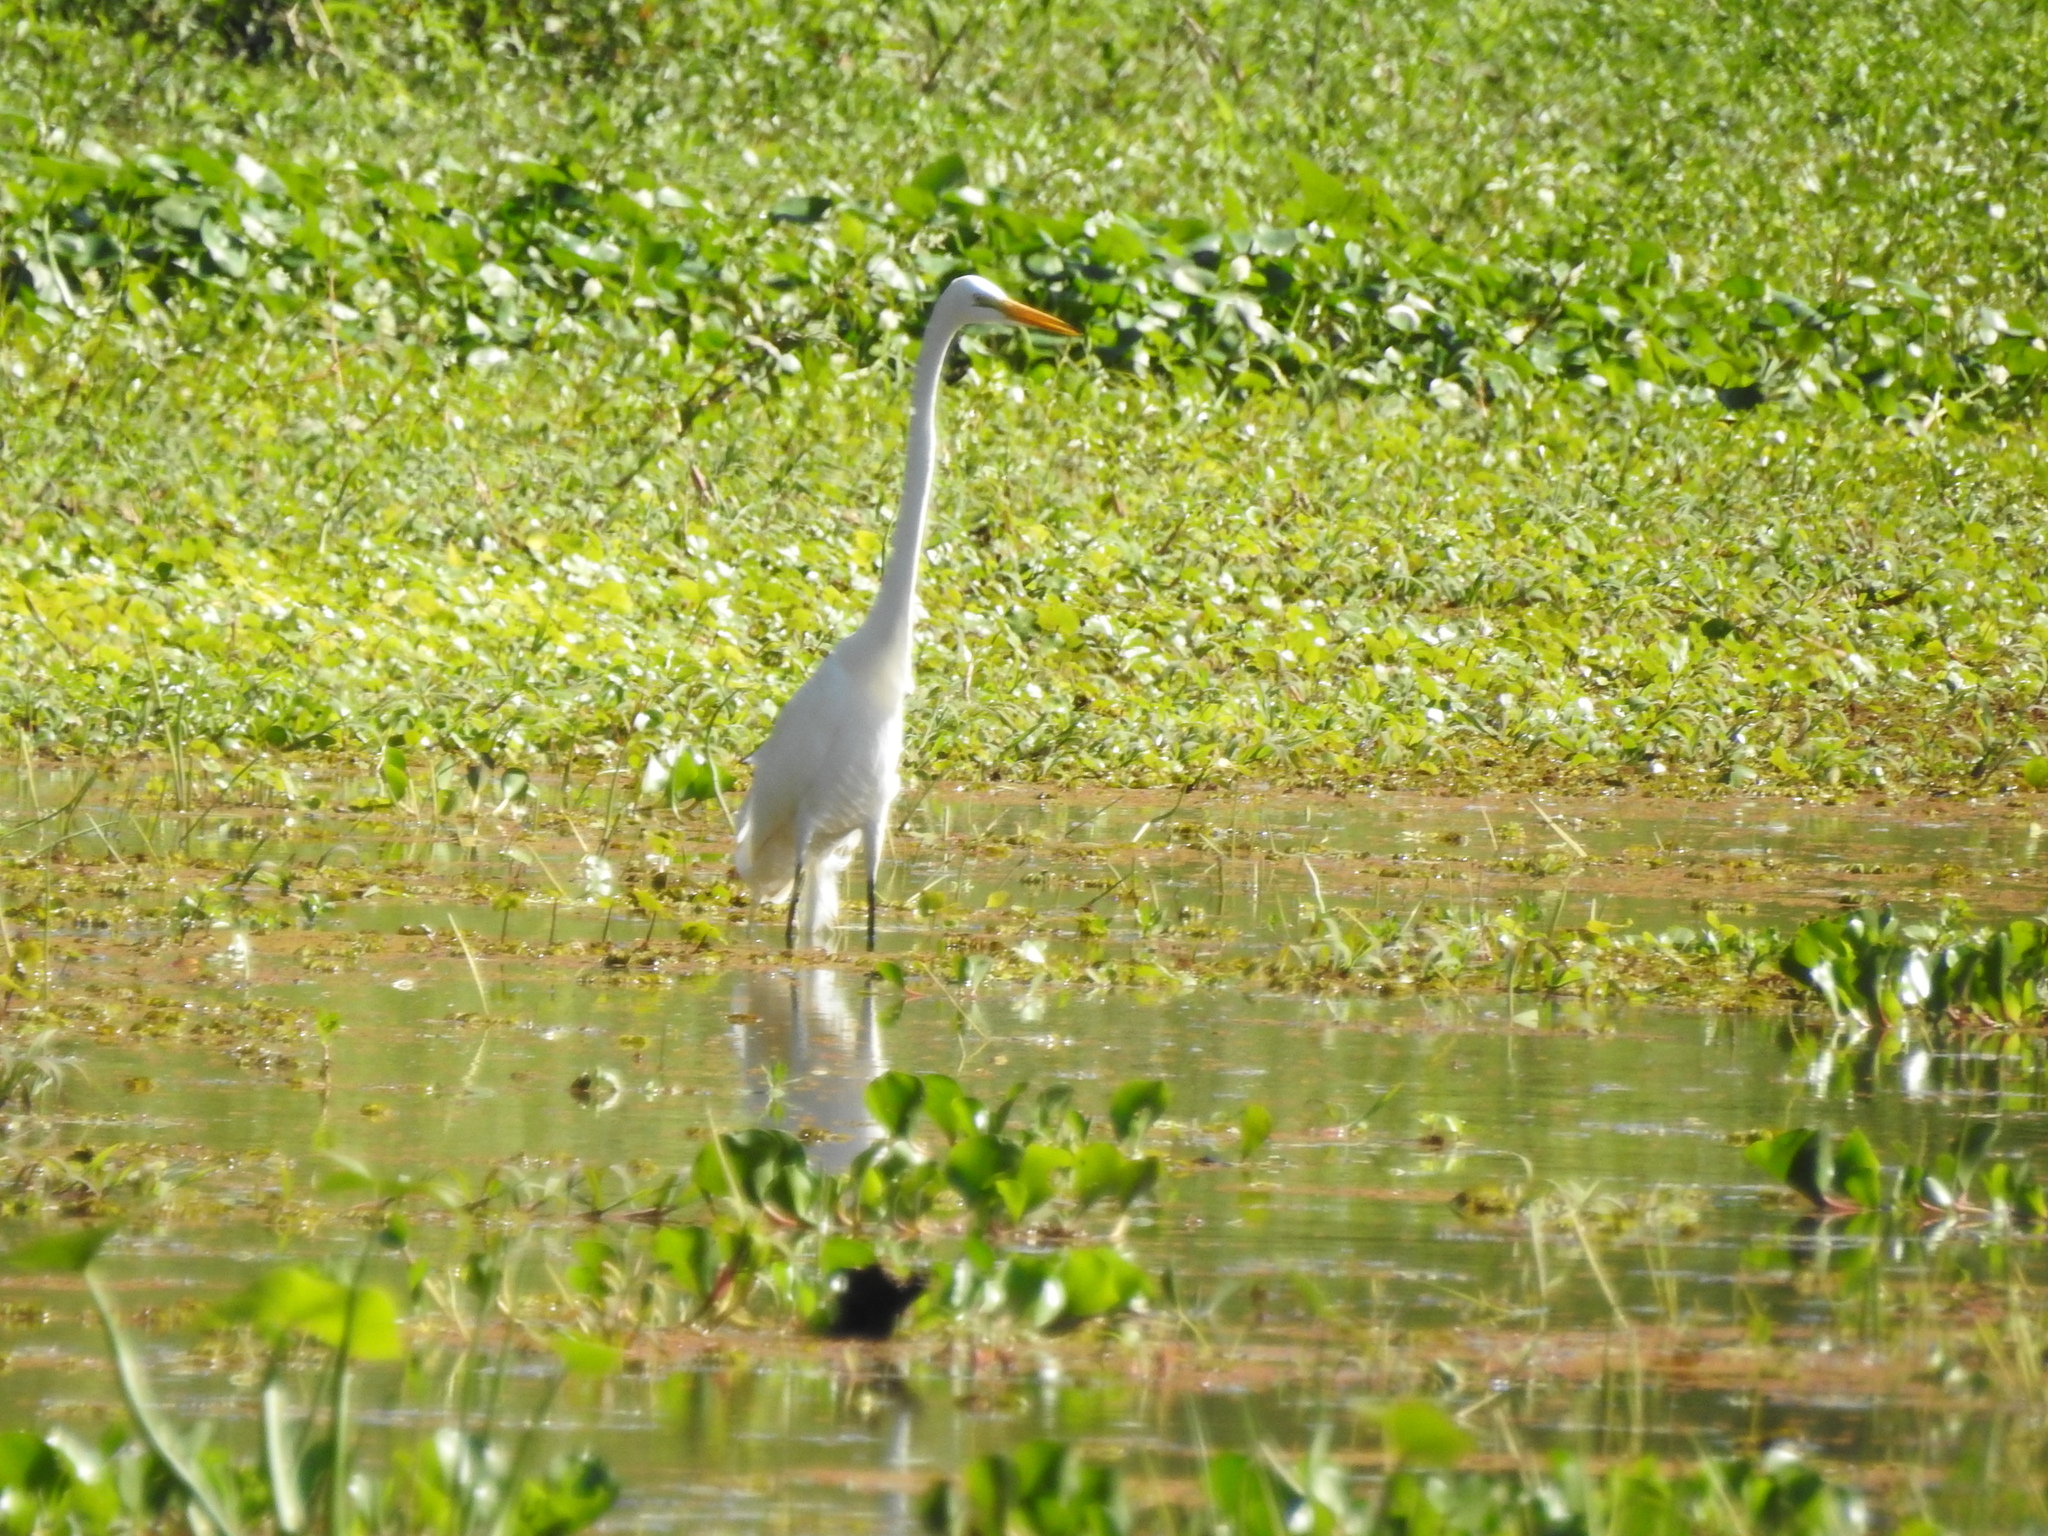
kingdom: Animalia
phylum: Chordata
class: Aves
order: Pelecaniformes
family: Ardeidae
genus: Ardea
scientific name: Ardea alba
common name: Great egret
